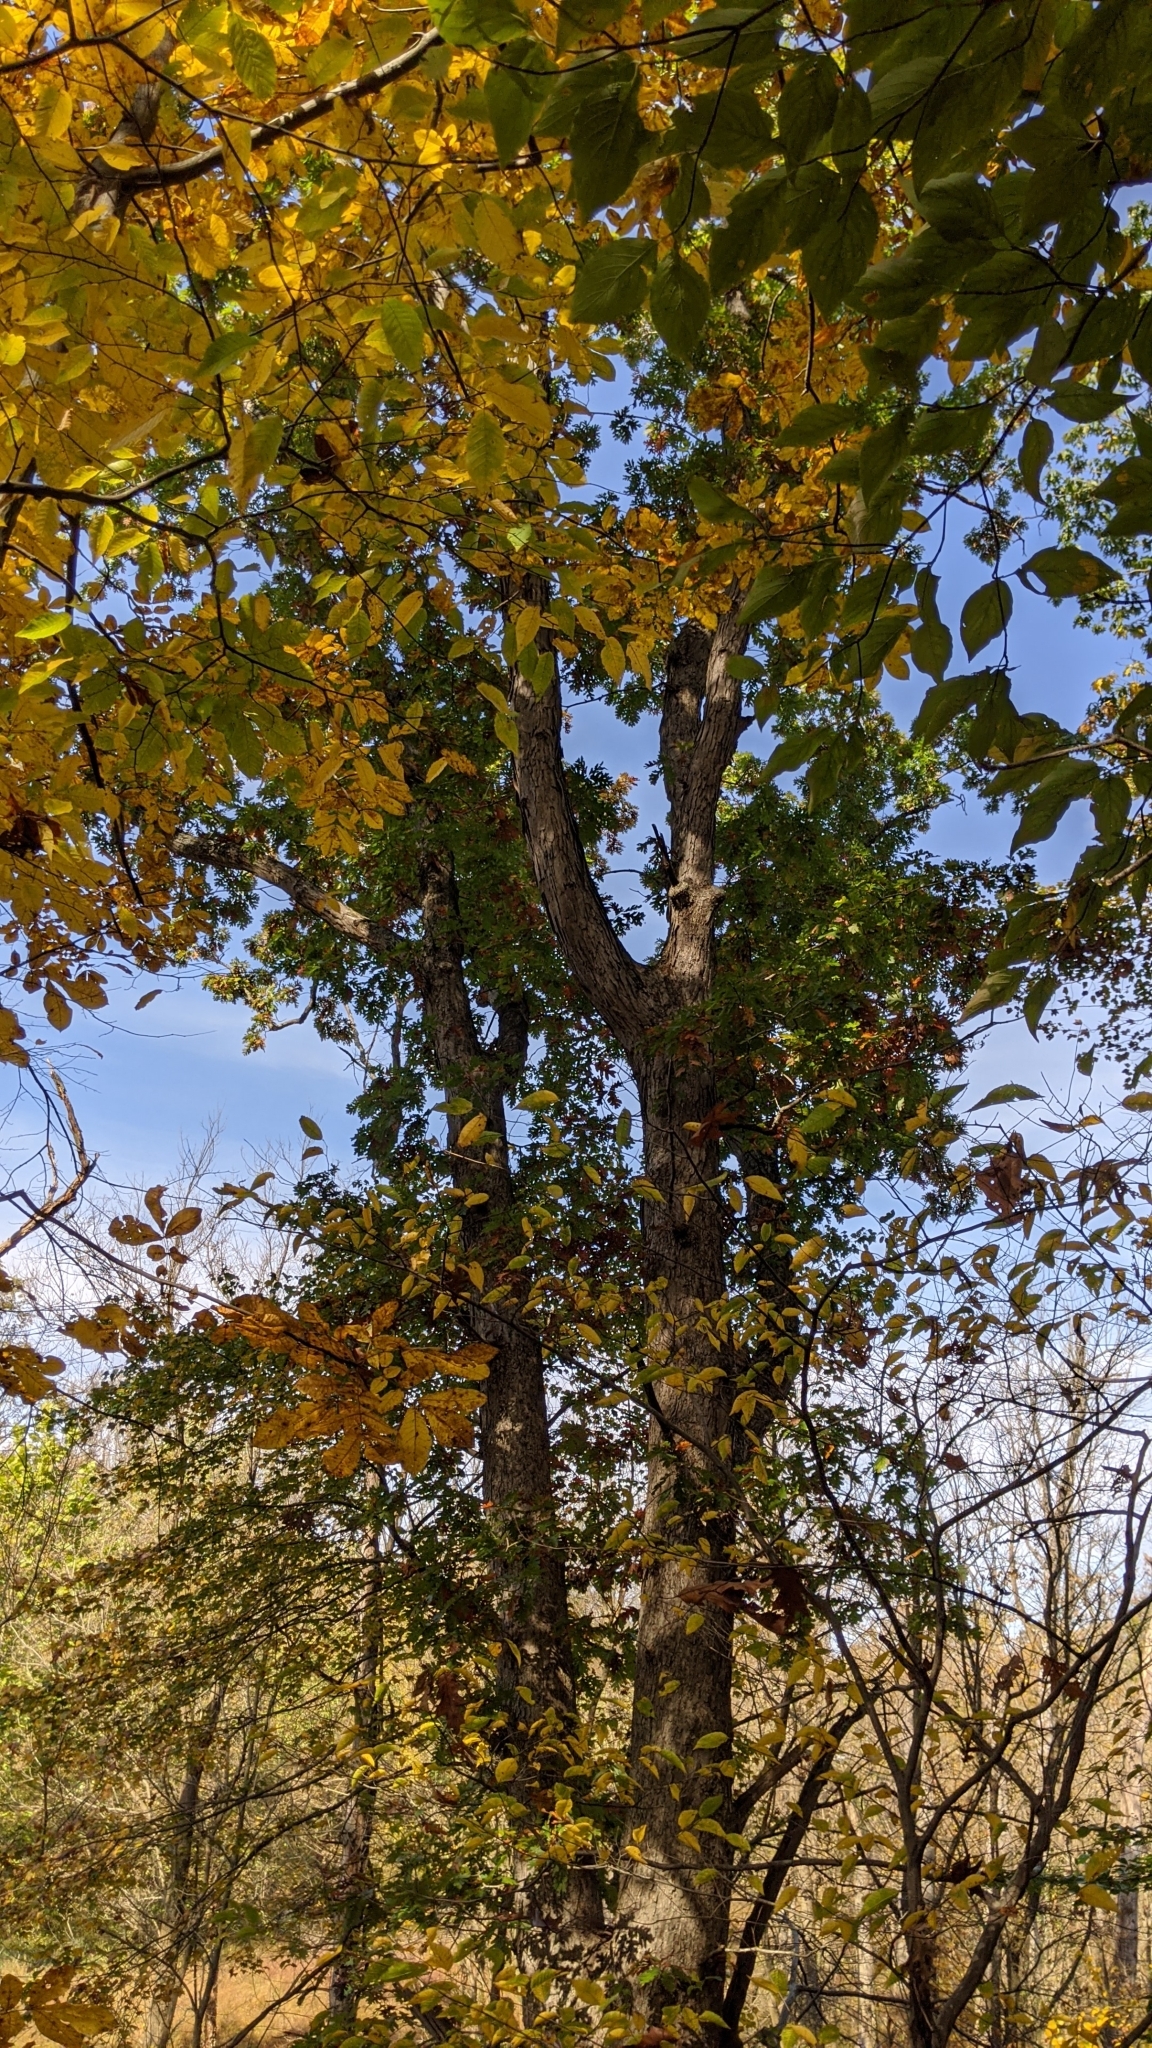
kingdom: Plantae
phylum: Tracheophyta
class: Magnoliopsida
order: Fagales
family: Fagaceae
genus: Quercus
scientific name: Quercus rubra
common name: Red oak
